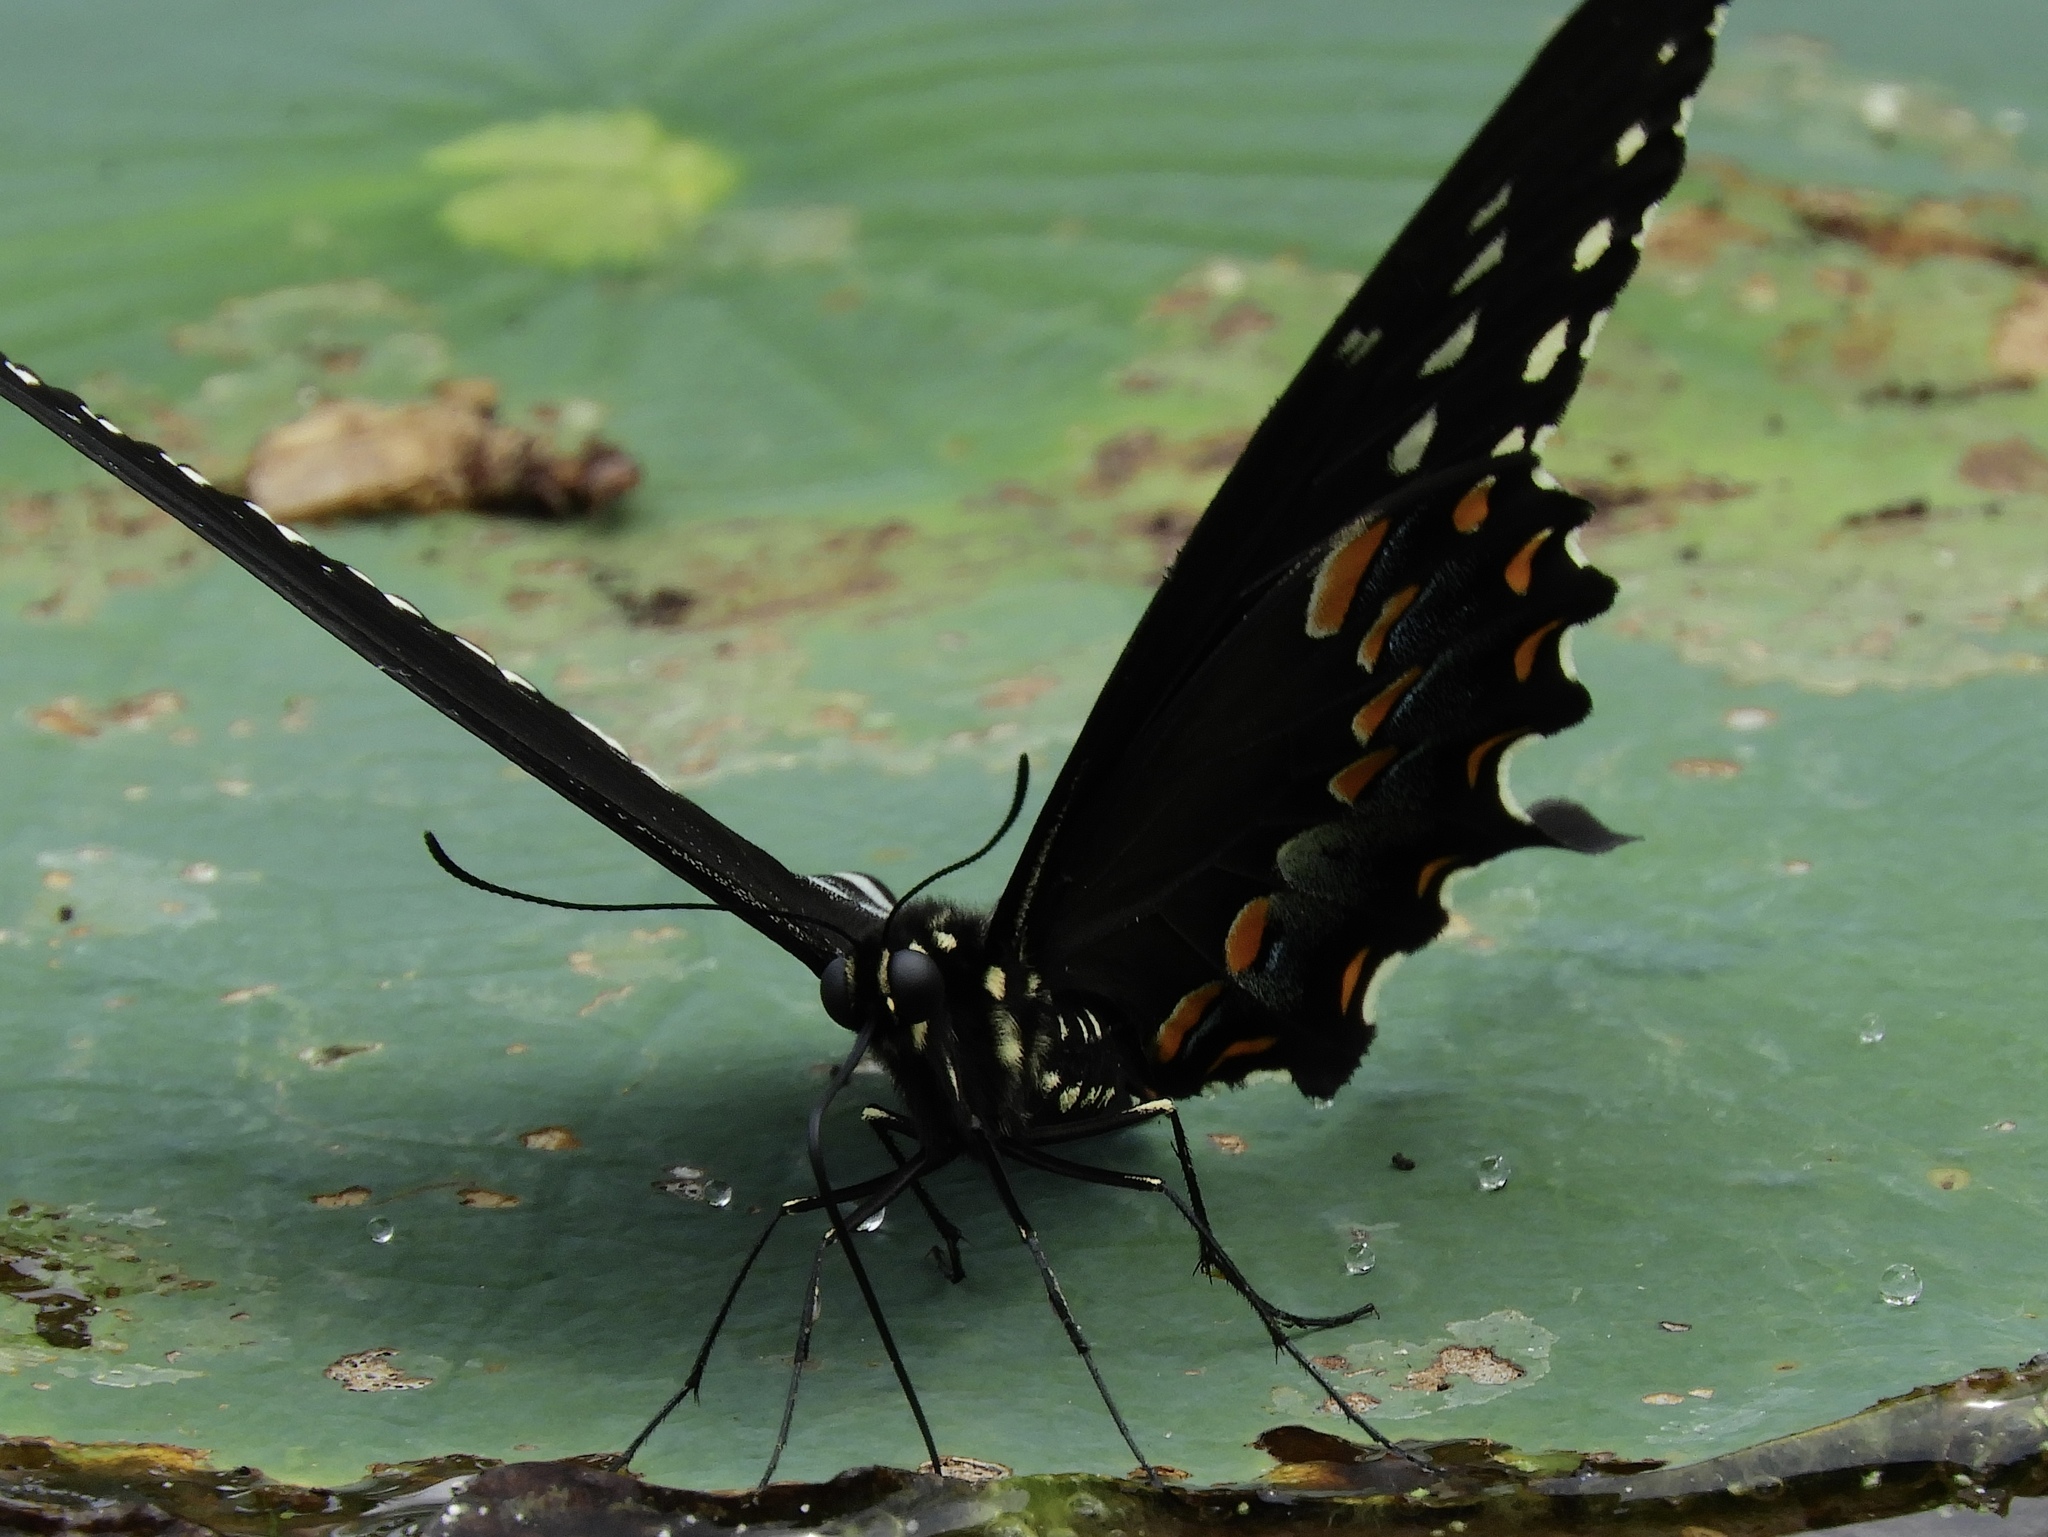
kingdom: Animalia
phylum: Arthropoda
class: Insecta
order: Lepidoptera
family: Papilionidae
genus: Papilio
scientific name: Papilio troilus
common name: Spicebush swallowtail
